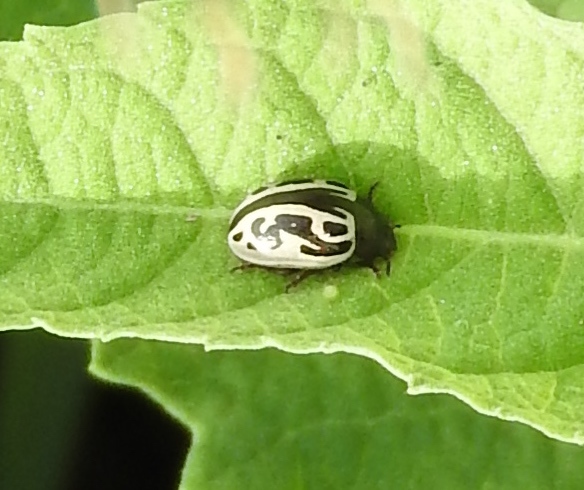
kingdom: Animalia
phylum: Arthropoda
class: Insecta
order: Coleoptera
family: Chrysomelidae
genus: Calligrapha
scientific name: Calligrapha
